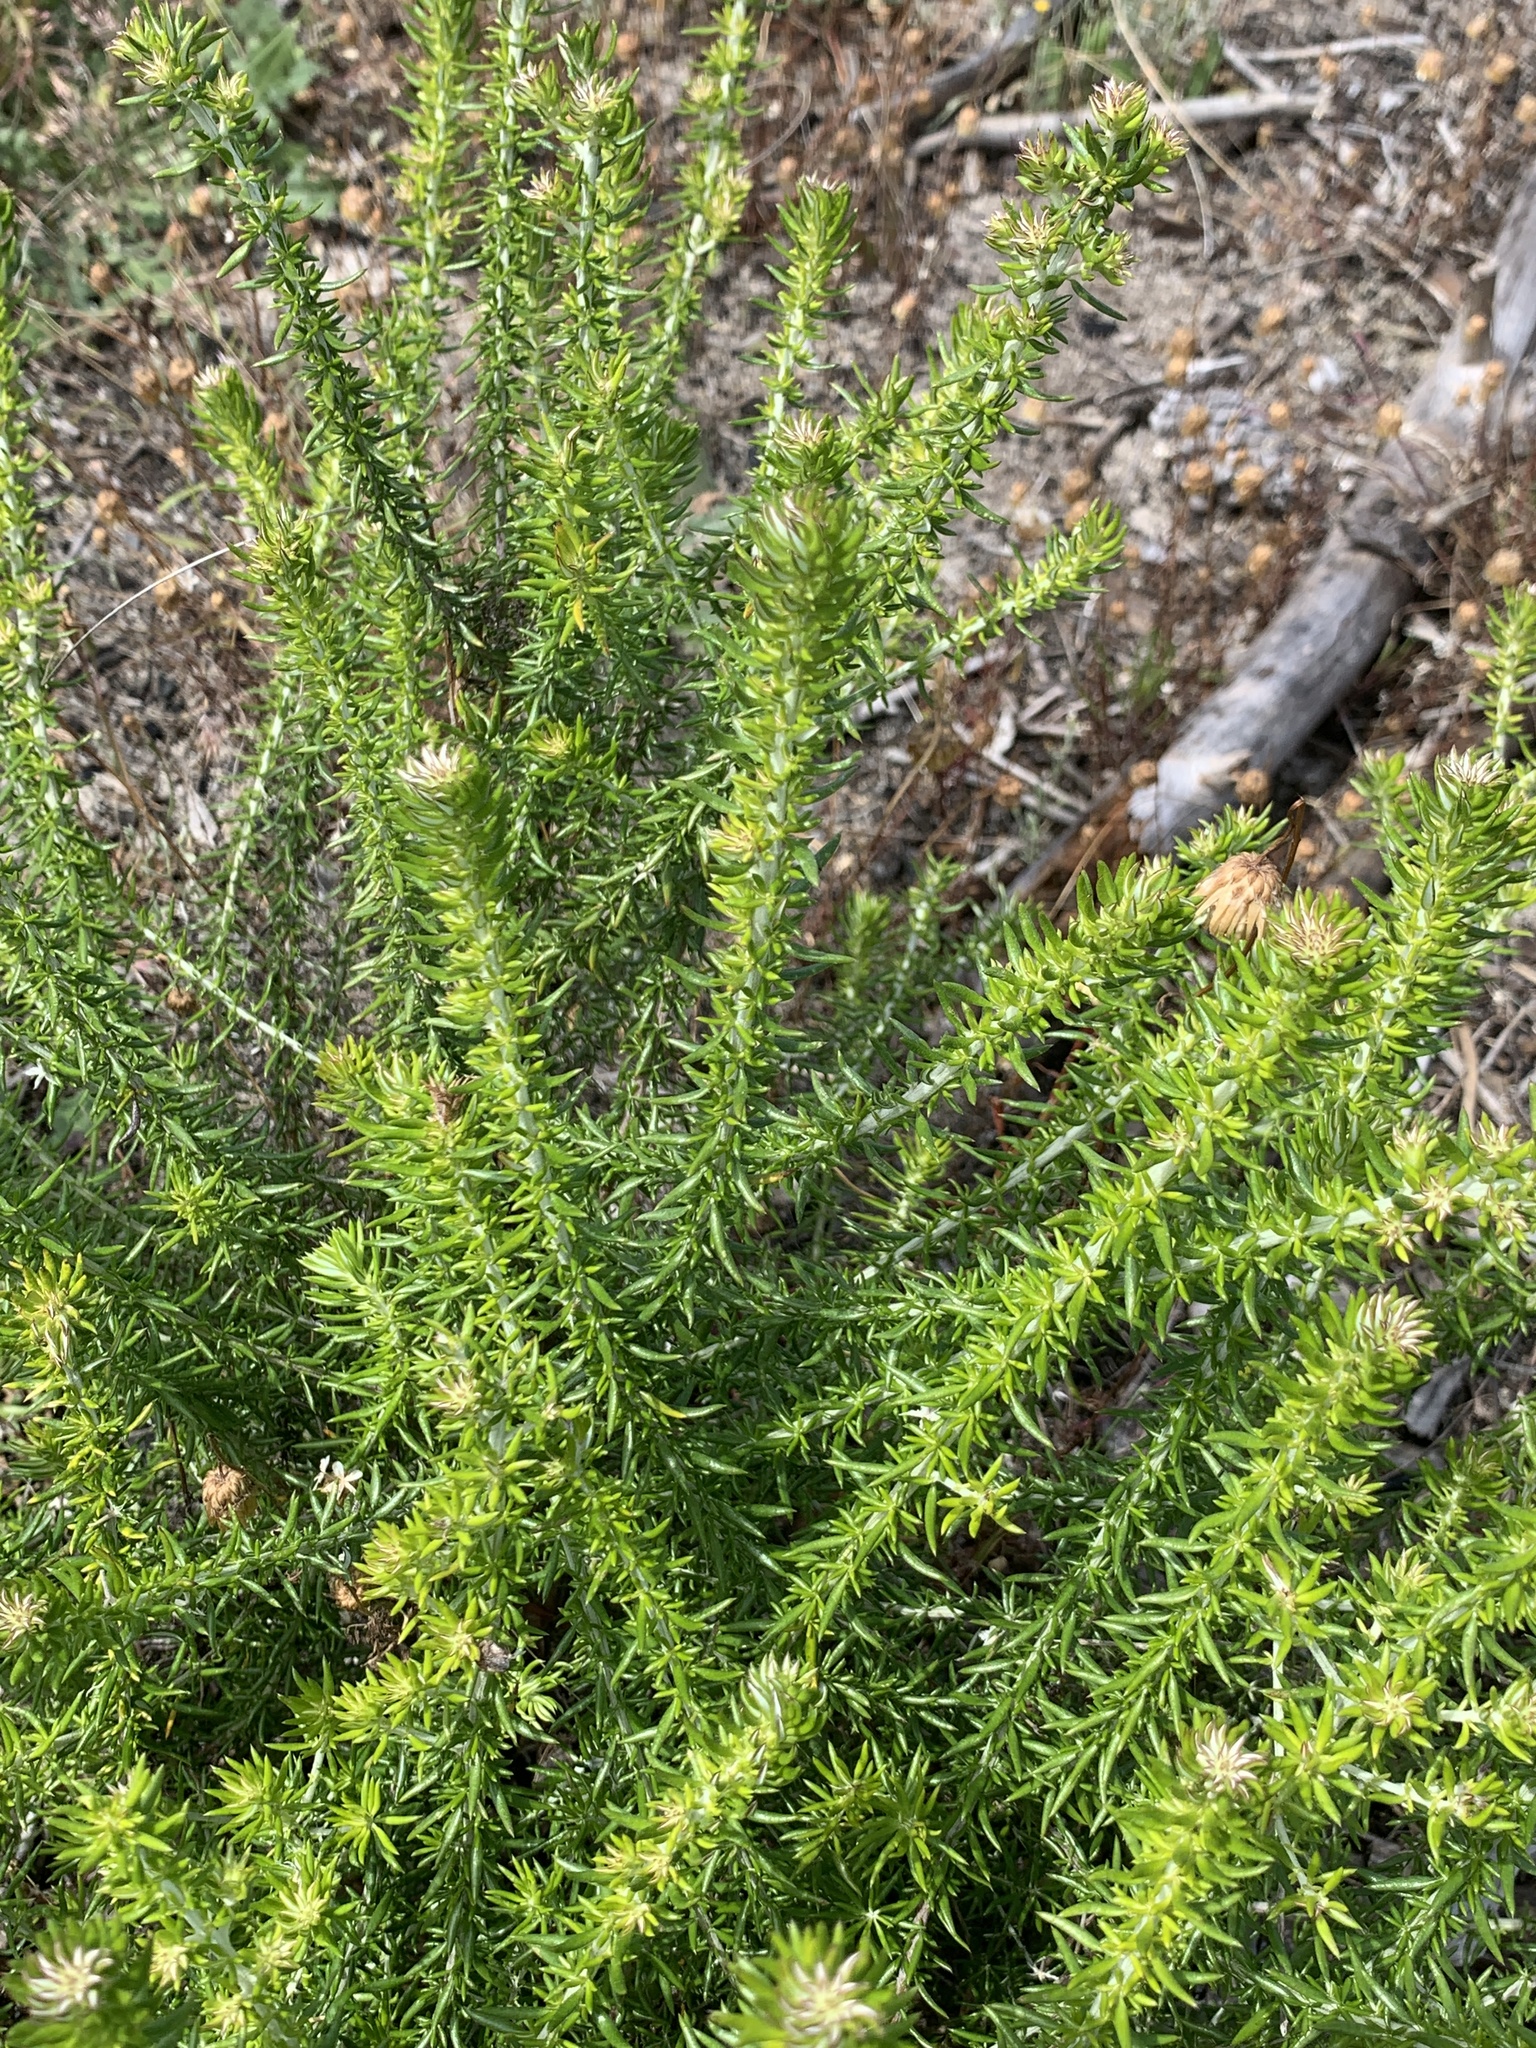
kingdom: Plantae
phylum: Tracheophyta
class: Magnoliopsida
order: Asterales
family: Asteraceae
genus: Metalasia
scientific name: Metalasia densa
